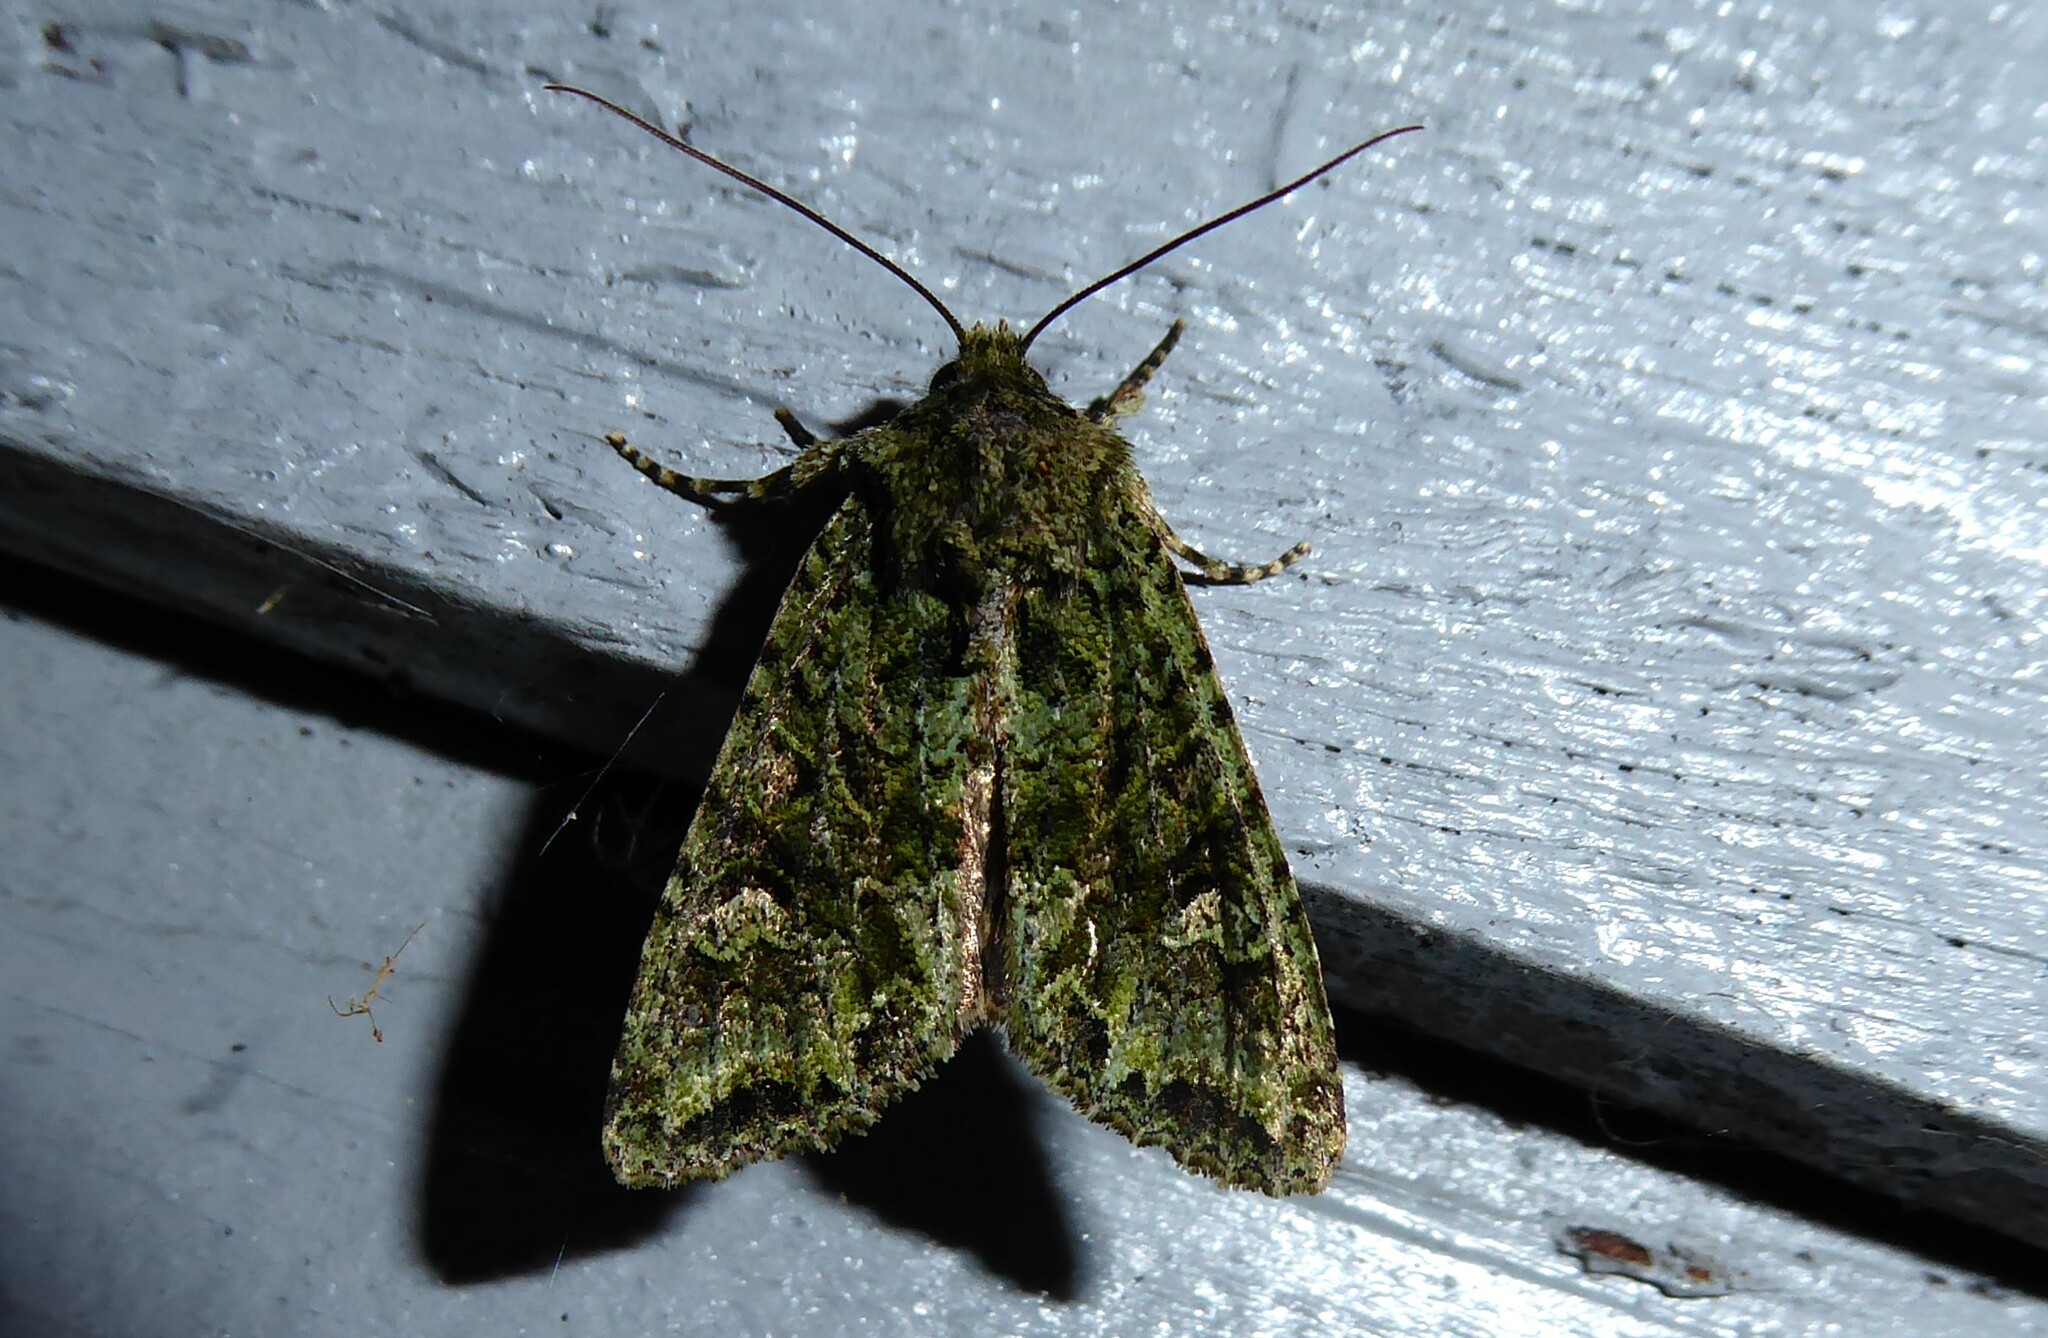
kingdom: Animalia
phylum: Arthropoda
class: Insecta
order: Lepidoptera
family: Noctuidae
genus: Ichneutica
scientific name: Ichneutica
